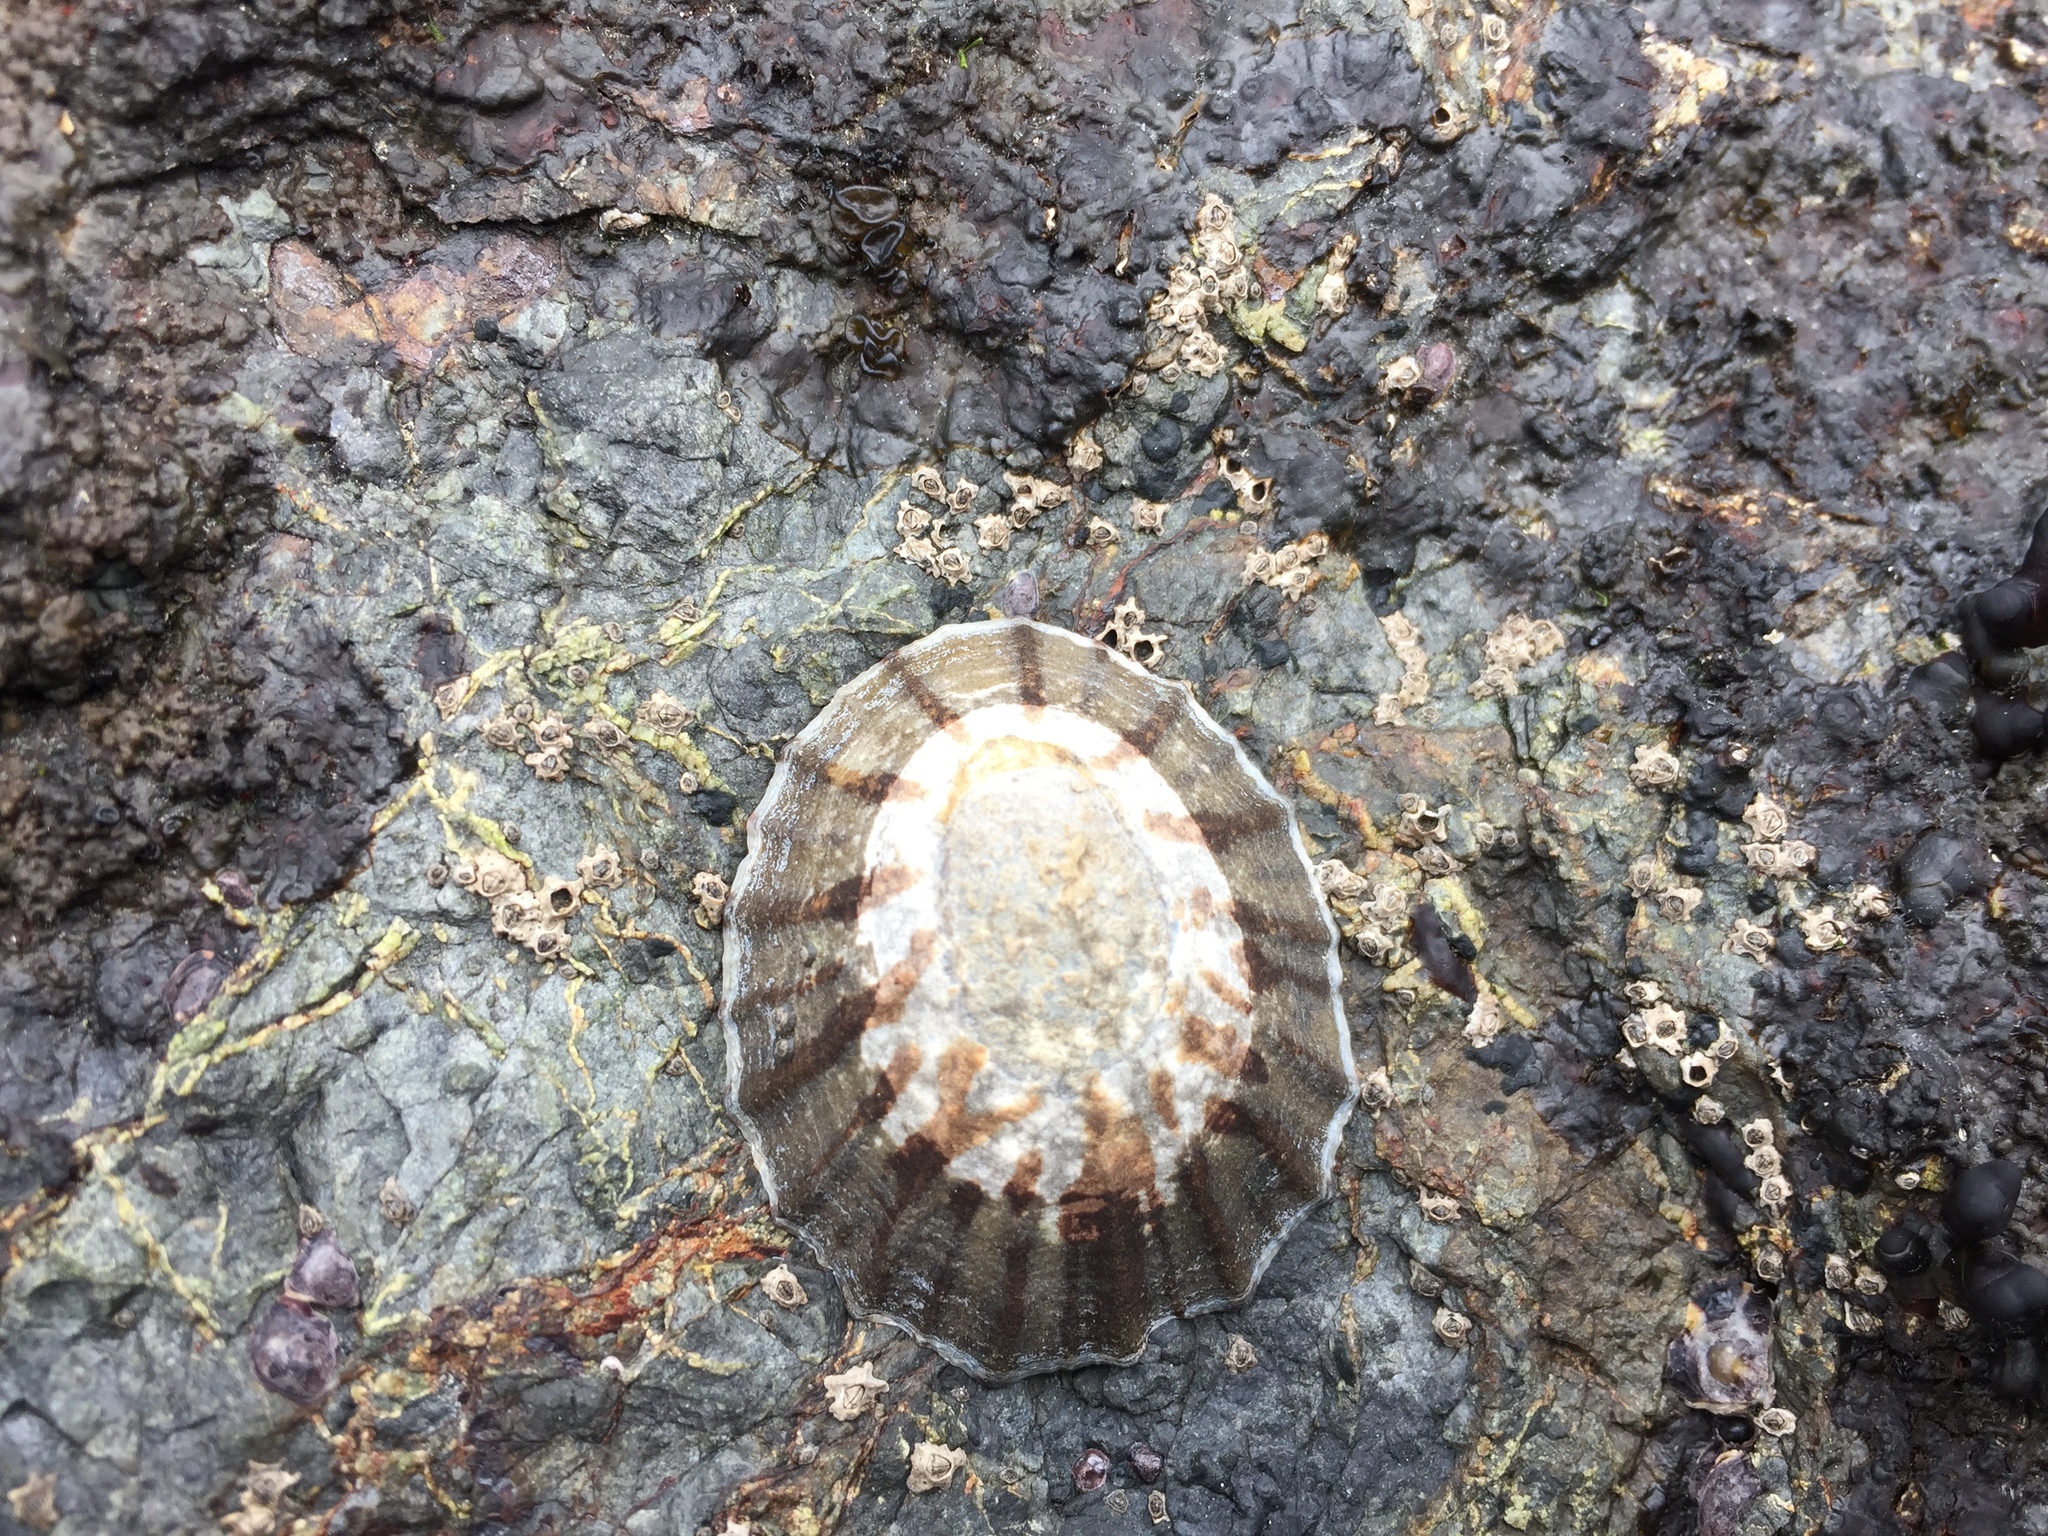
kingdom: Animalia
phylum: Mollusca
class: Gastropoda
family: Nacellidae
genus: Cellana
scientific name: Cellana radians
